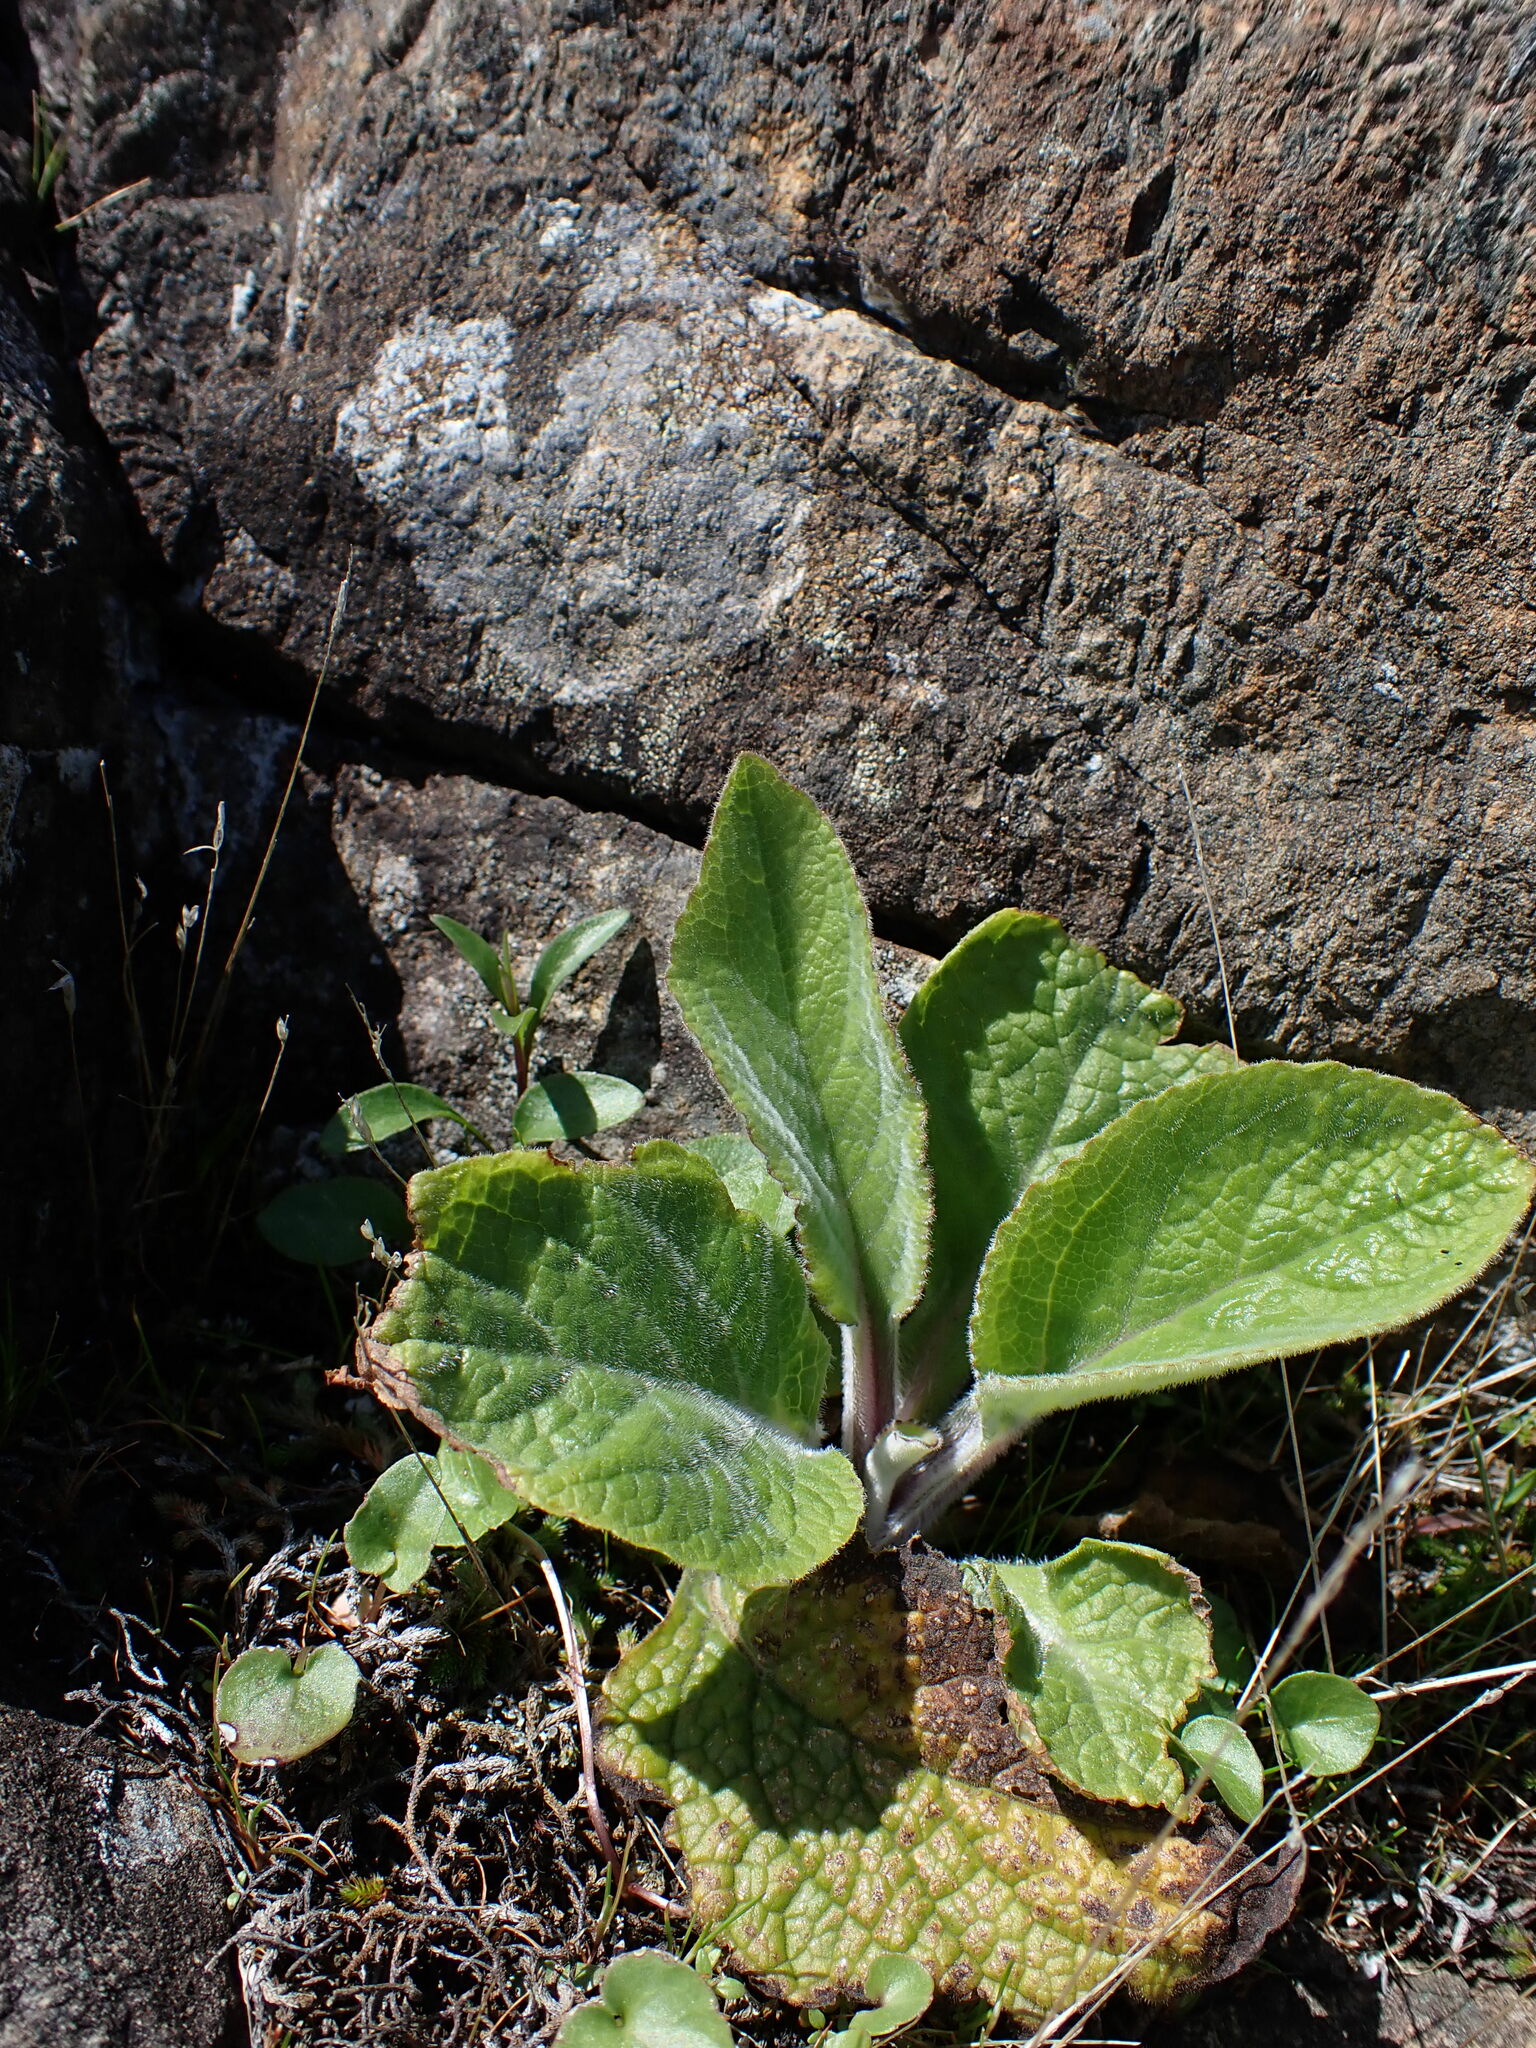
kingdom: Plantae
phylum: Tracheophyta
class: Magnoliopsida
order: Lamiales
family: Plantaginaceae
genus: Digitalis
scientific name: Digitalis purpurea
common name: Foxglove
